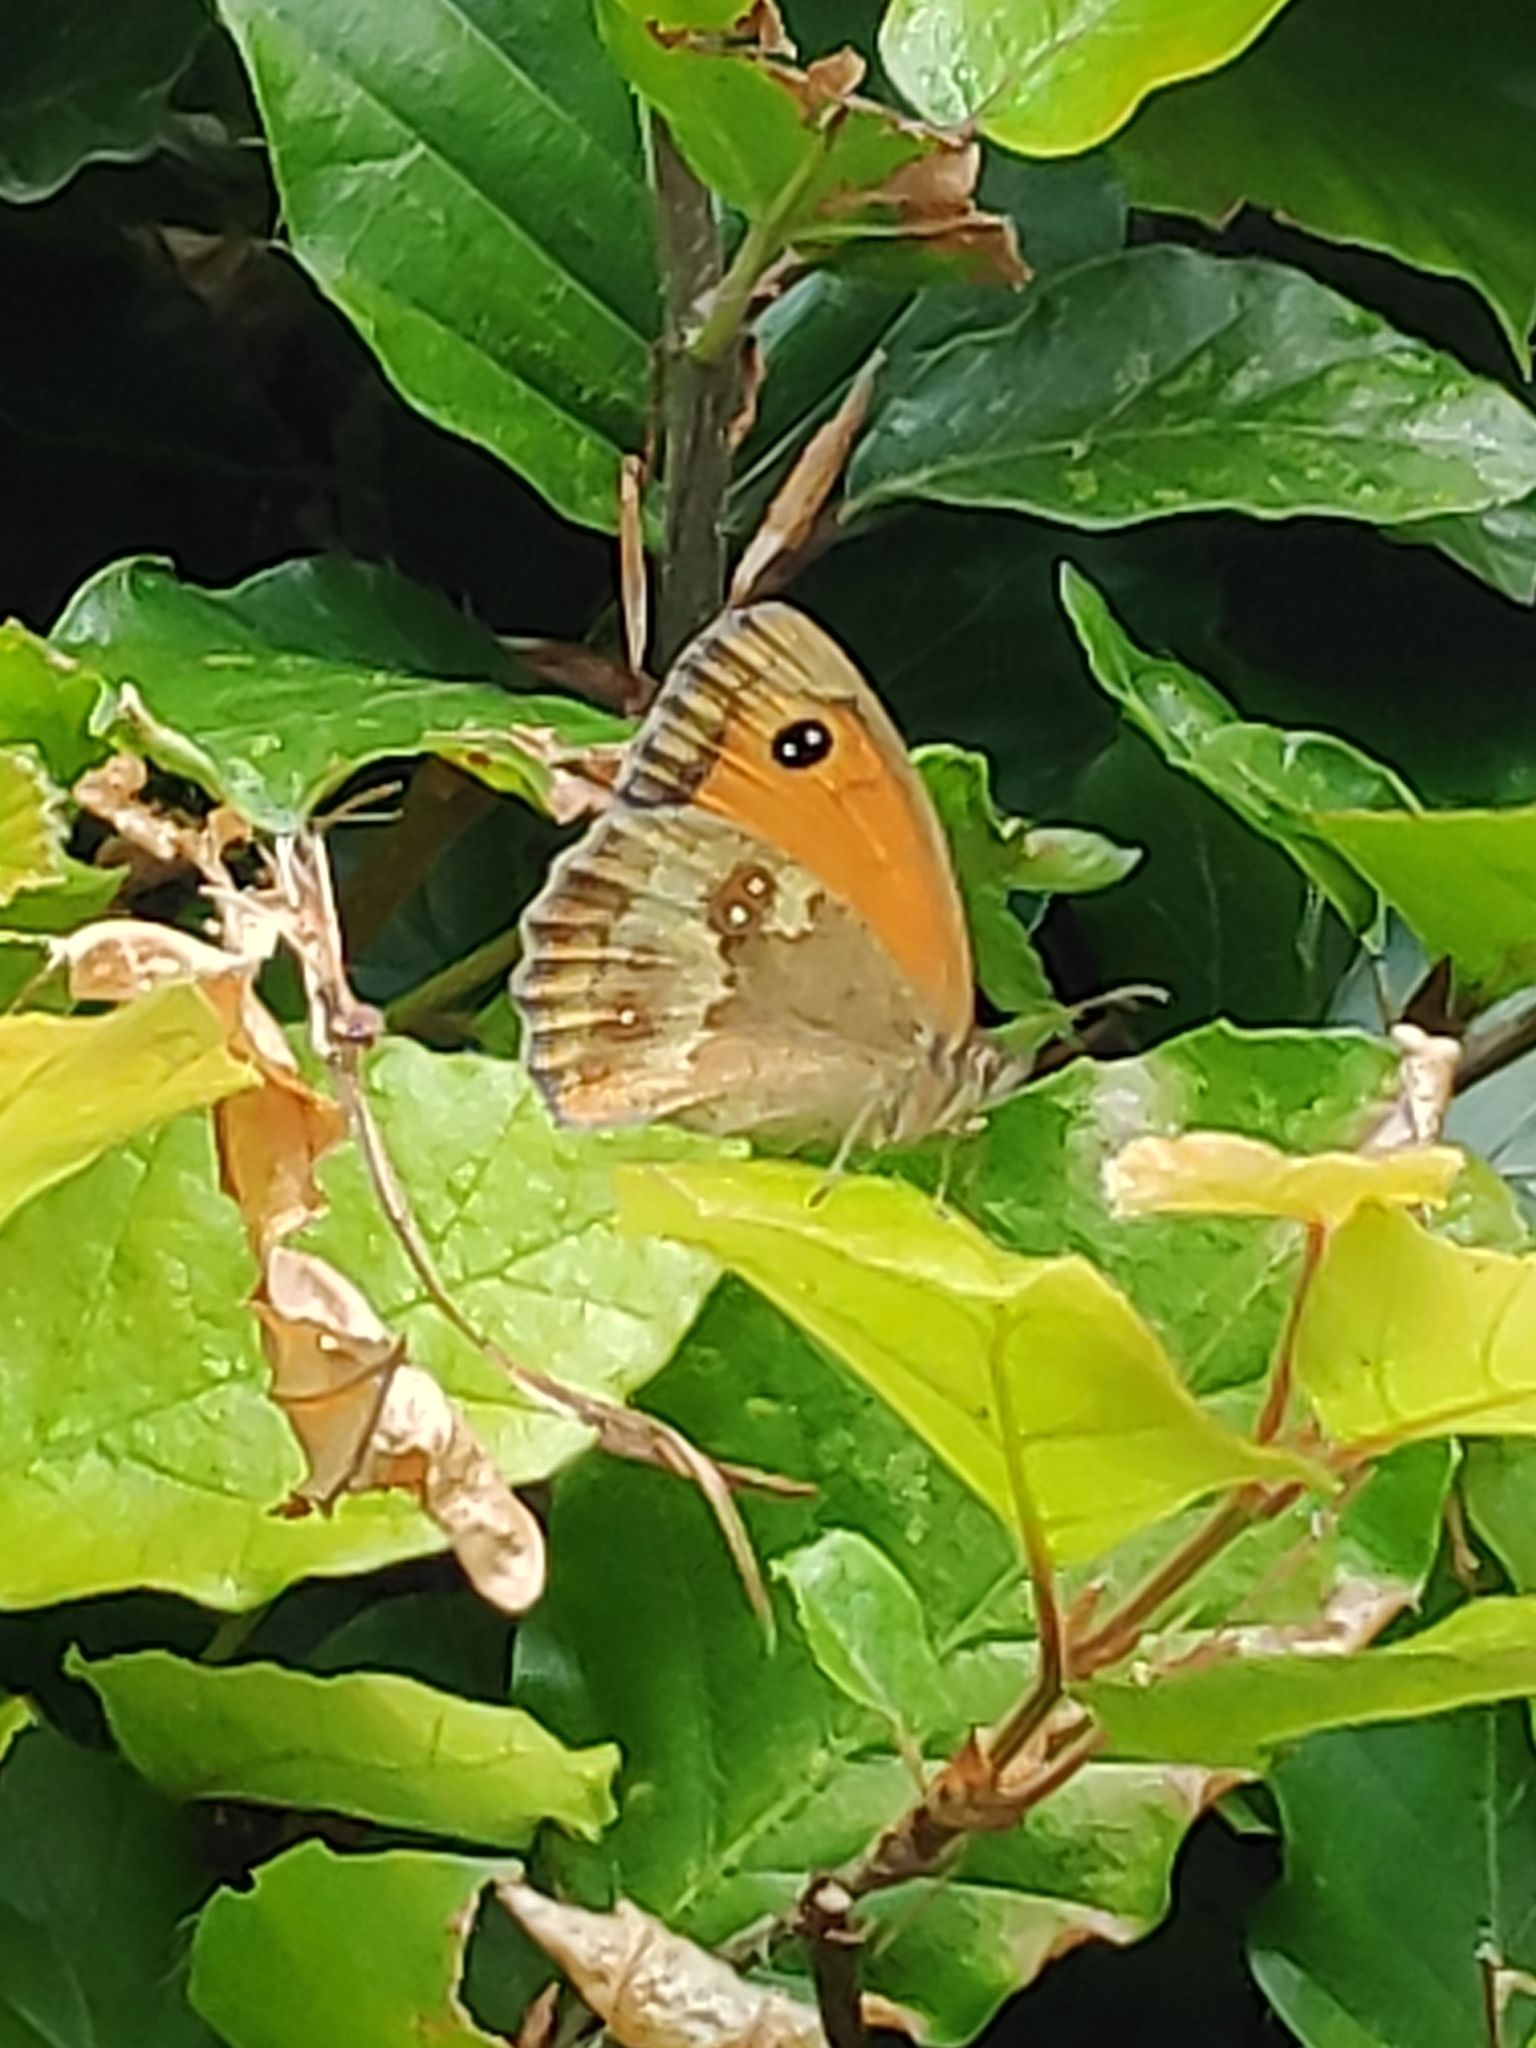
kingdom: Animalia
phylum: Arthropoda
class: Insecta
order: Lepidoptera
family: Nymphalidae
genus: Pyronia
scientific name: Pyronia tithonus
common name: Gatekeeper
